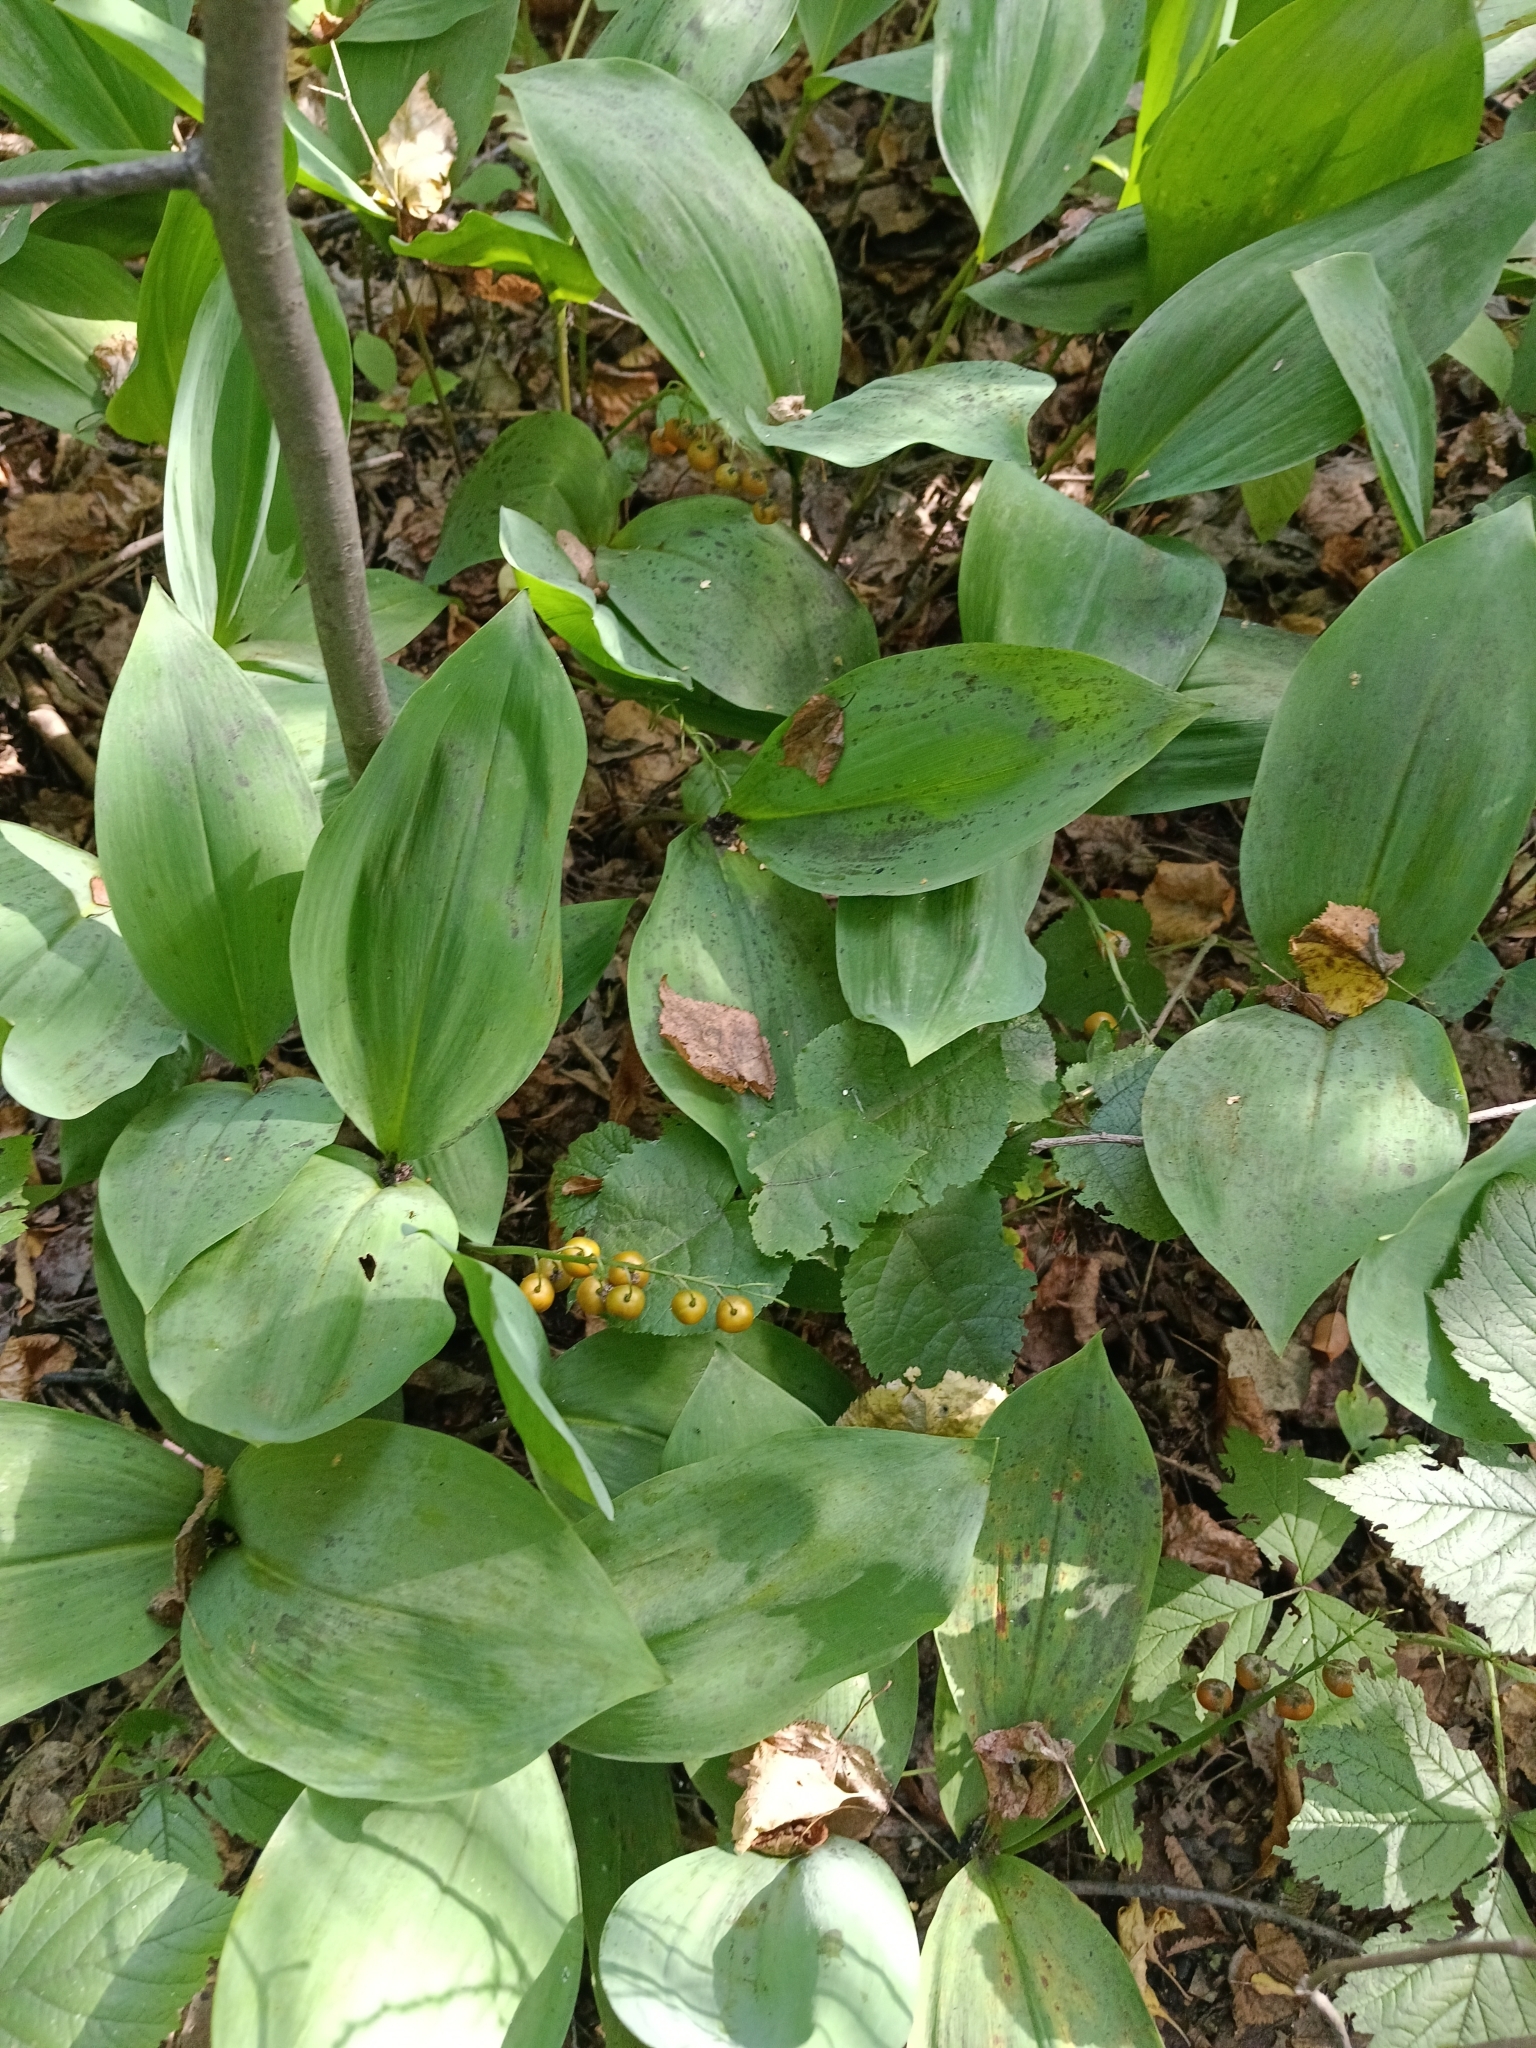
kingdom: Plantae
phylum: Tracheophyta
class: Liliopsida
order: Asparagales
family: Asparagaceae
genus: Convallaria
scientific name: Convallaria majalis
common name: Lily-of-the-valley
